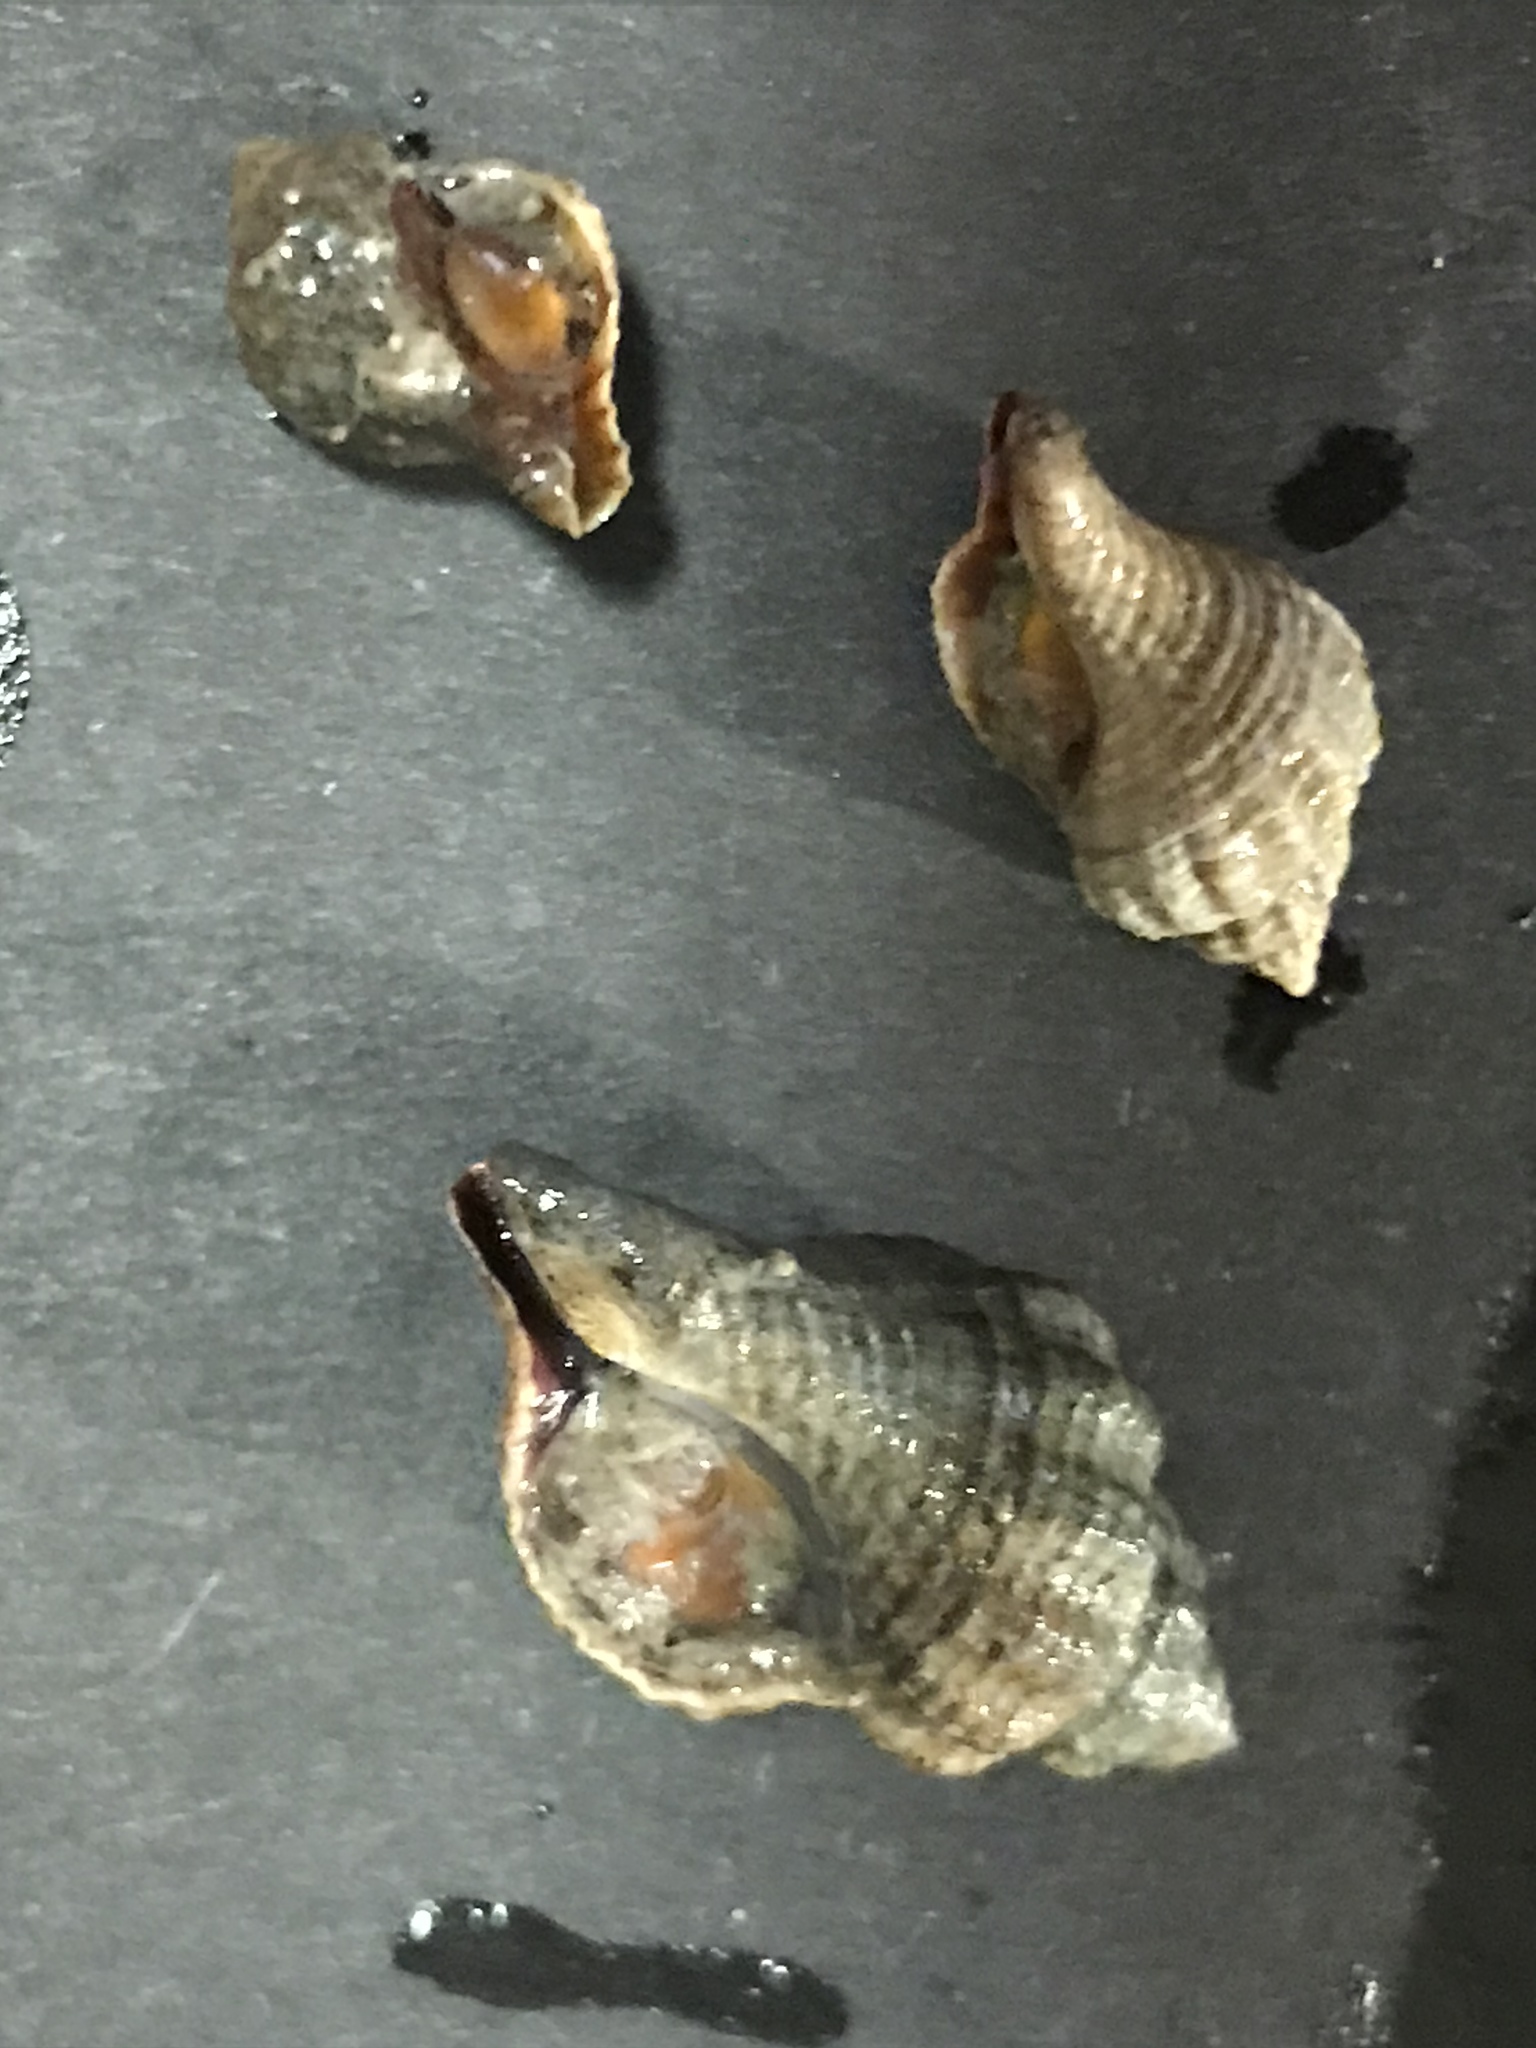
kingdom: Animalia
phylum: Mollusca
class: Gastropoda
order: Neogastropoda
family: Muricidae
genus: Urosalpinx
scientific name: Urosalpinx cinerea
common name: American sting winkle
